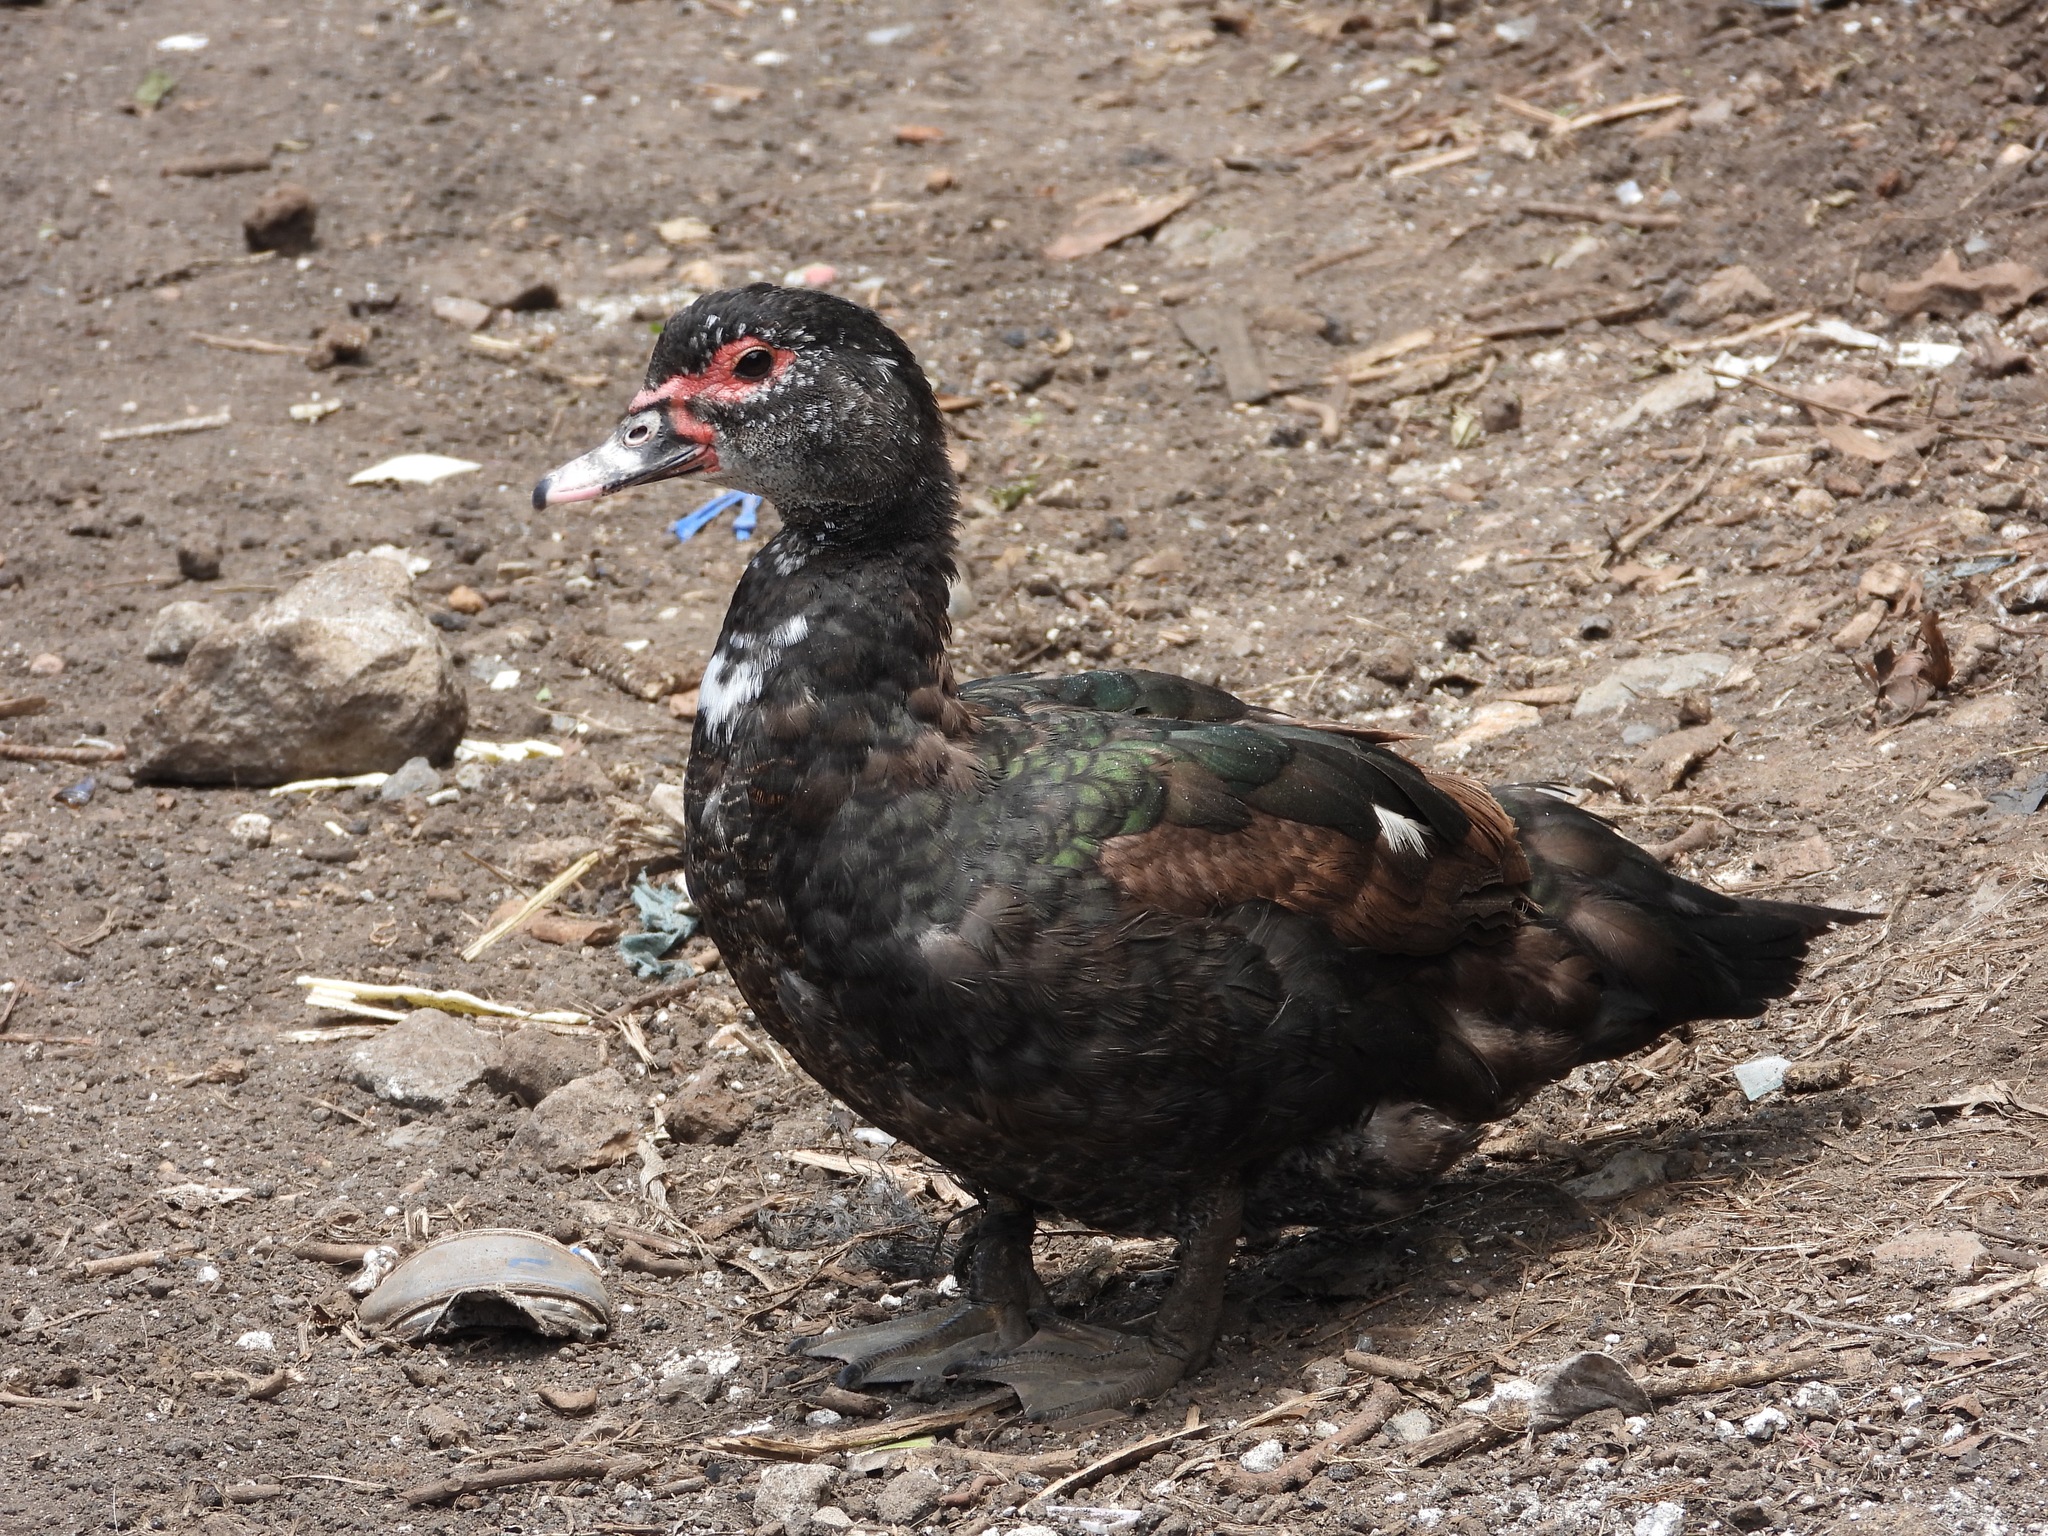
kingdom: Animalia
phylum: Chordata
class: Aves
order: Anseriformes
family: Anatidae
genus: Cairina
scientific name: Cairina moschata
